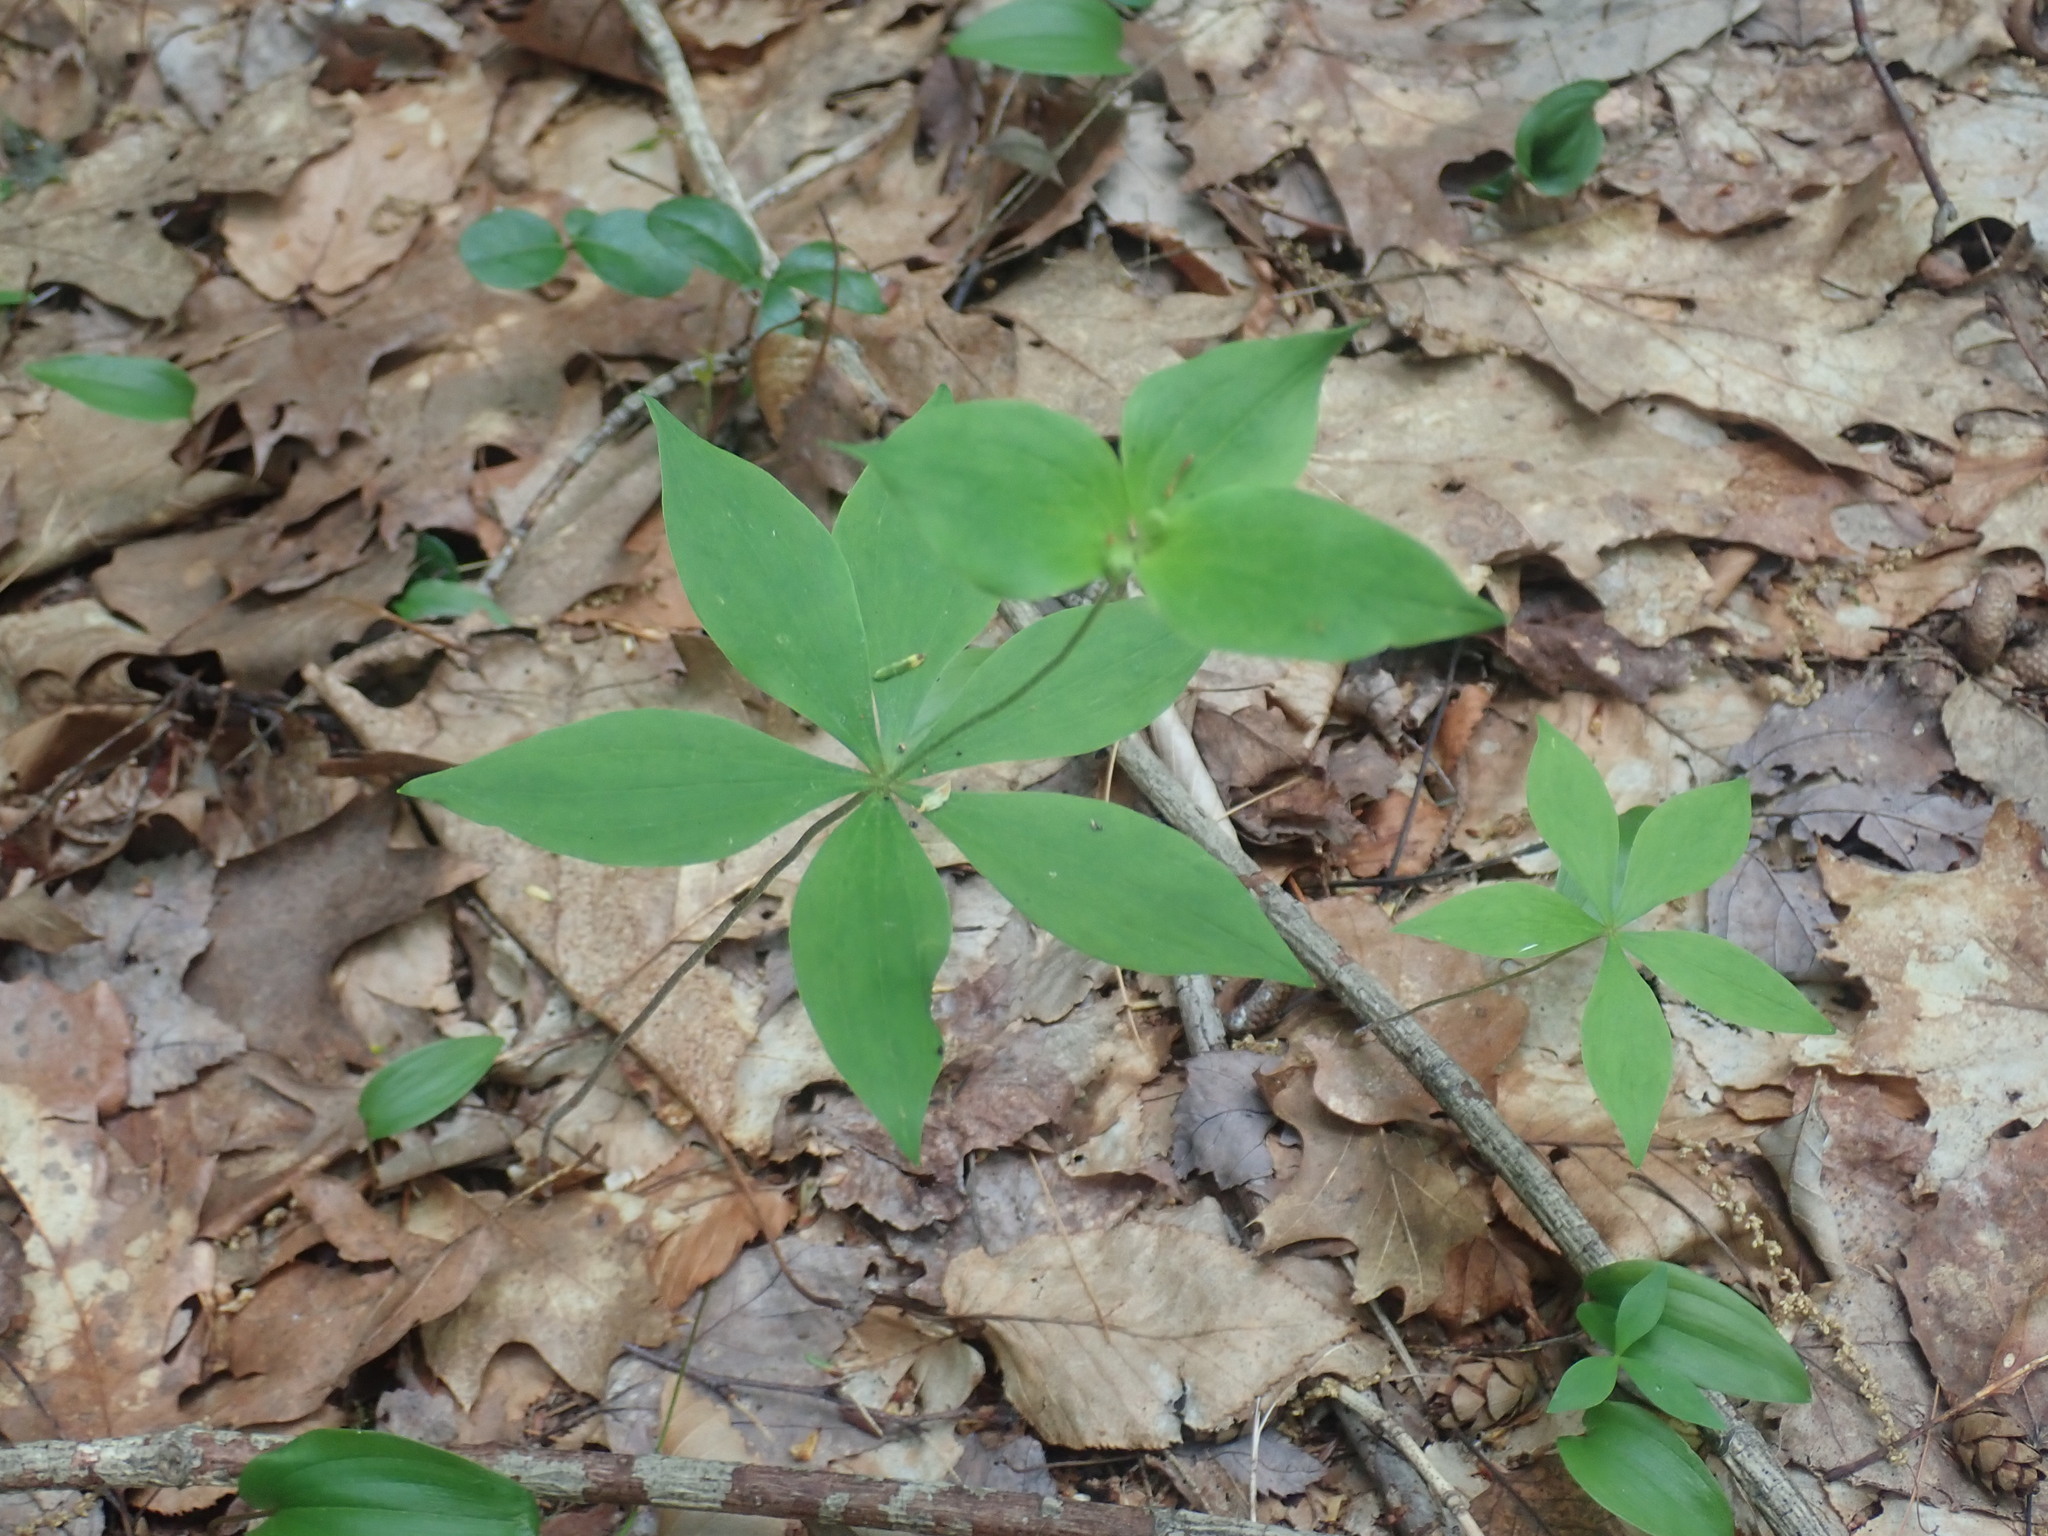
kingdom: Plantae
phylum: Tracheophyta
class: Liliopsida
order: Liliales
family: Liliaceae
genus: Medeola
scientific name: Medeola virginiana
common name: Indian cucumber-root
